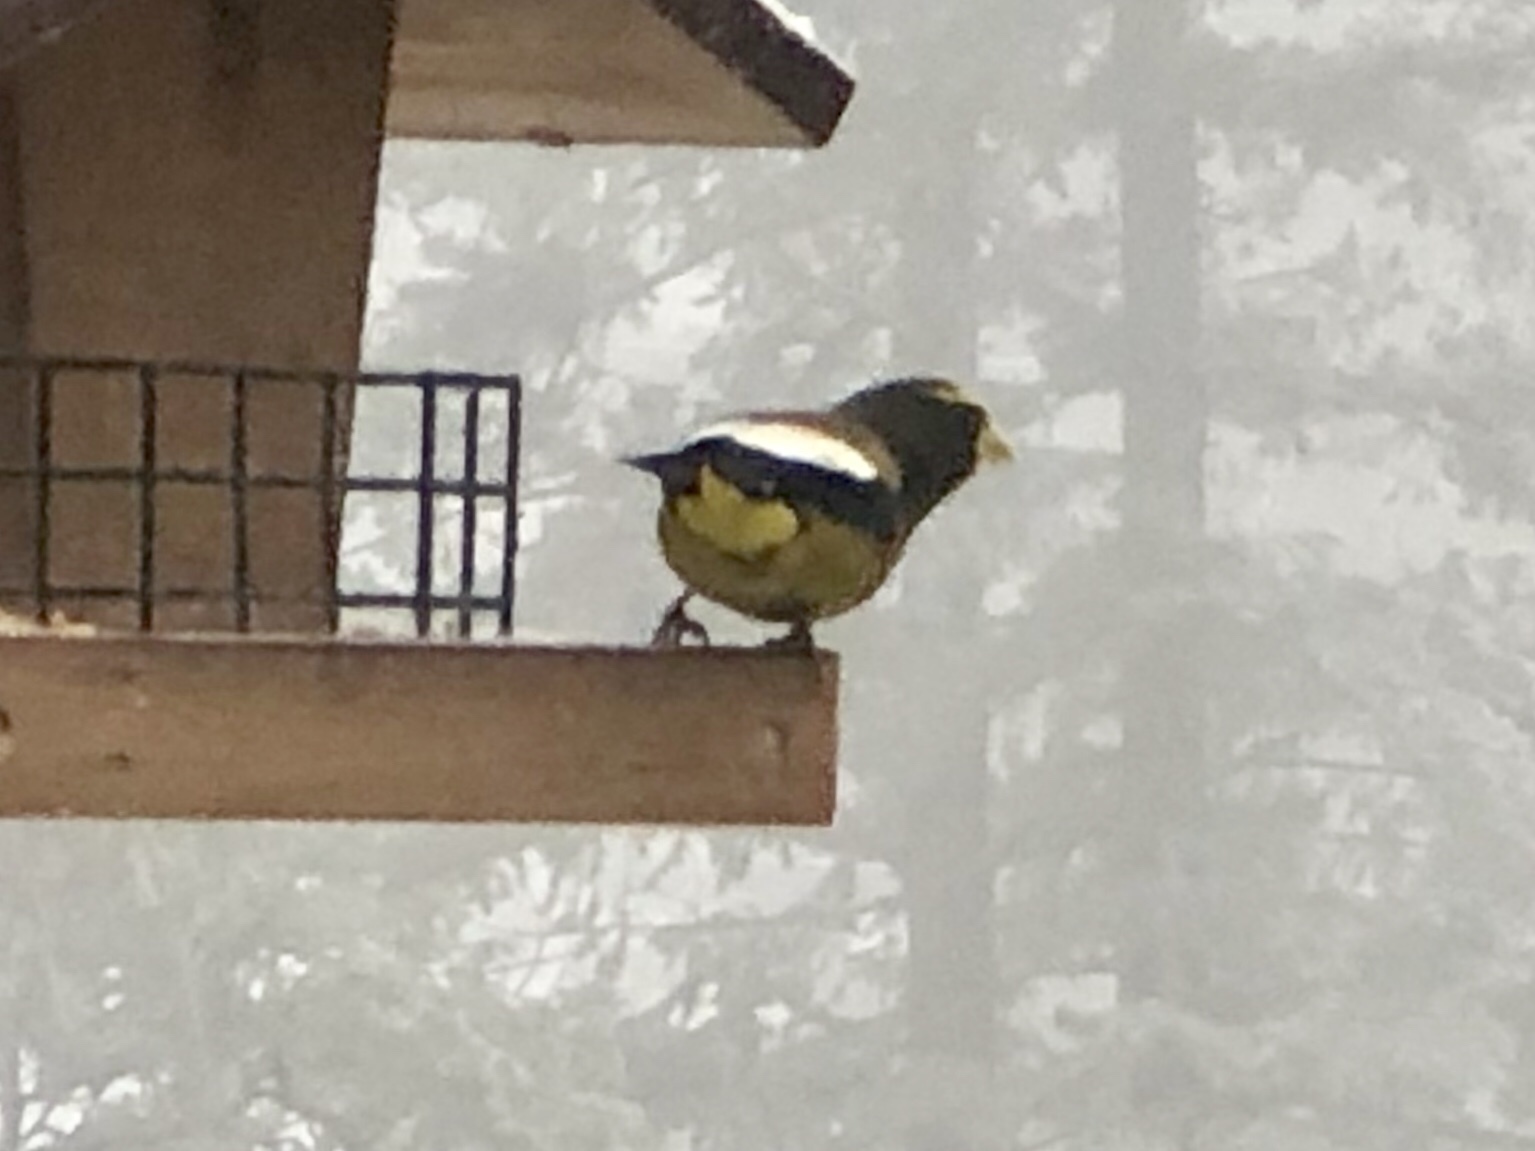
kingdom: Animalia
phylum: Chordata
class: Aves
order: Passeriformes
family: Fringillidae
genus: Hesperiphona
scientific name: Hesperiphona vespertina
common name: Evening grosbeak
